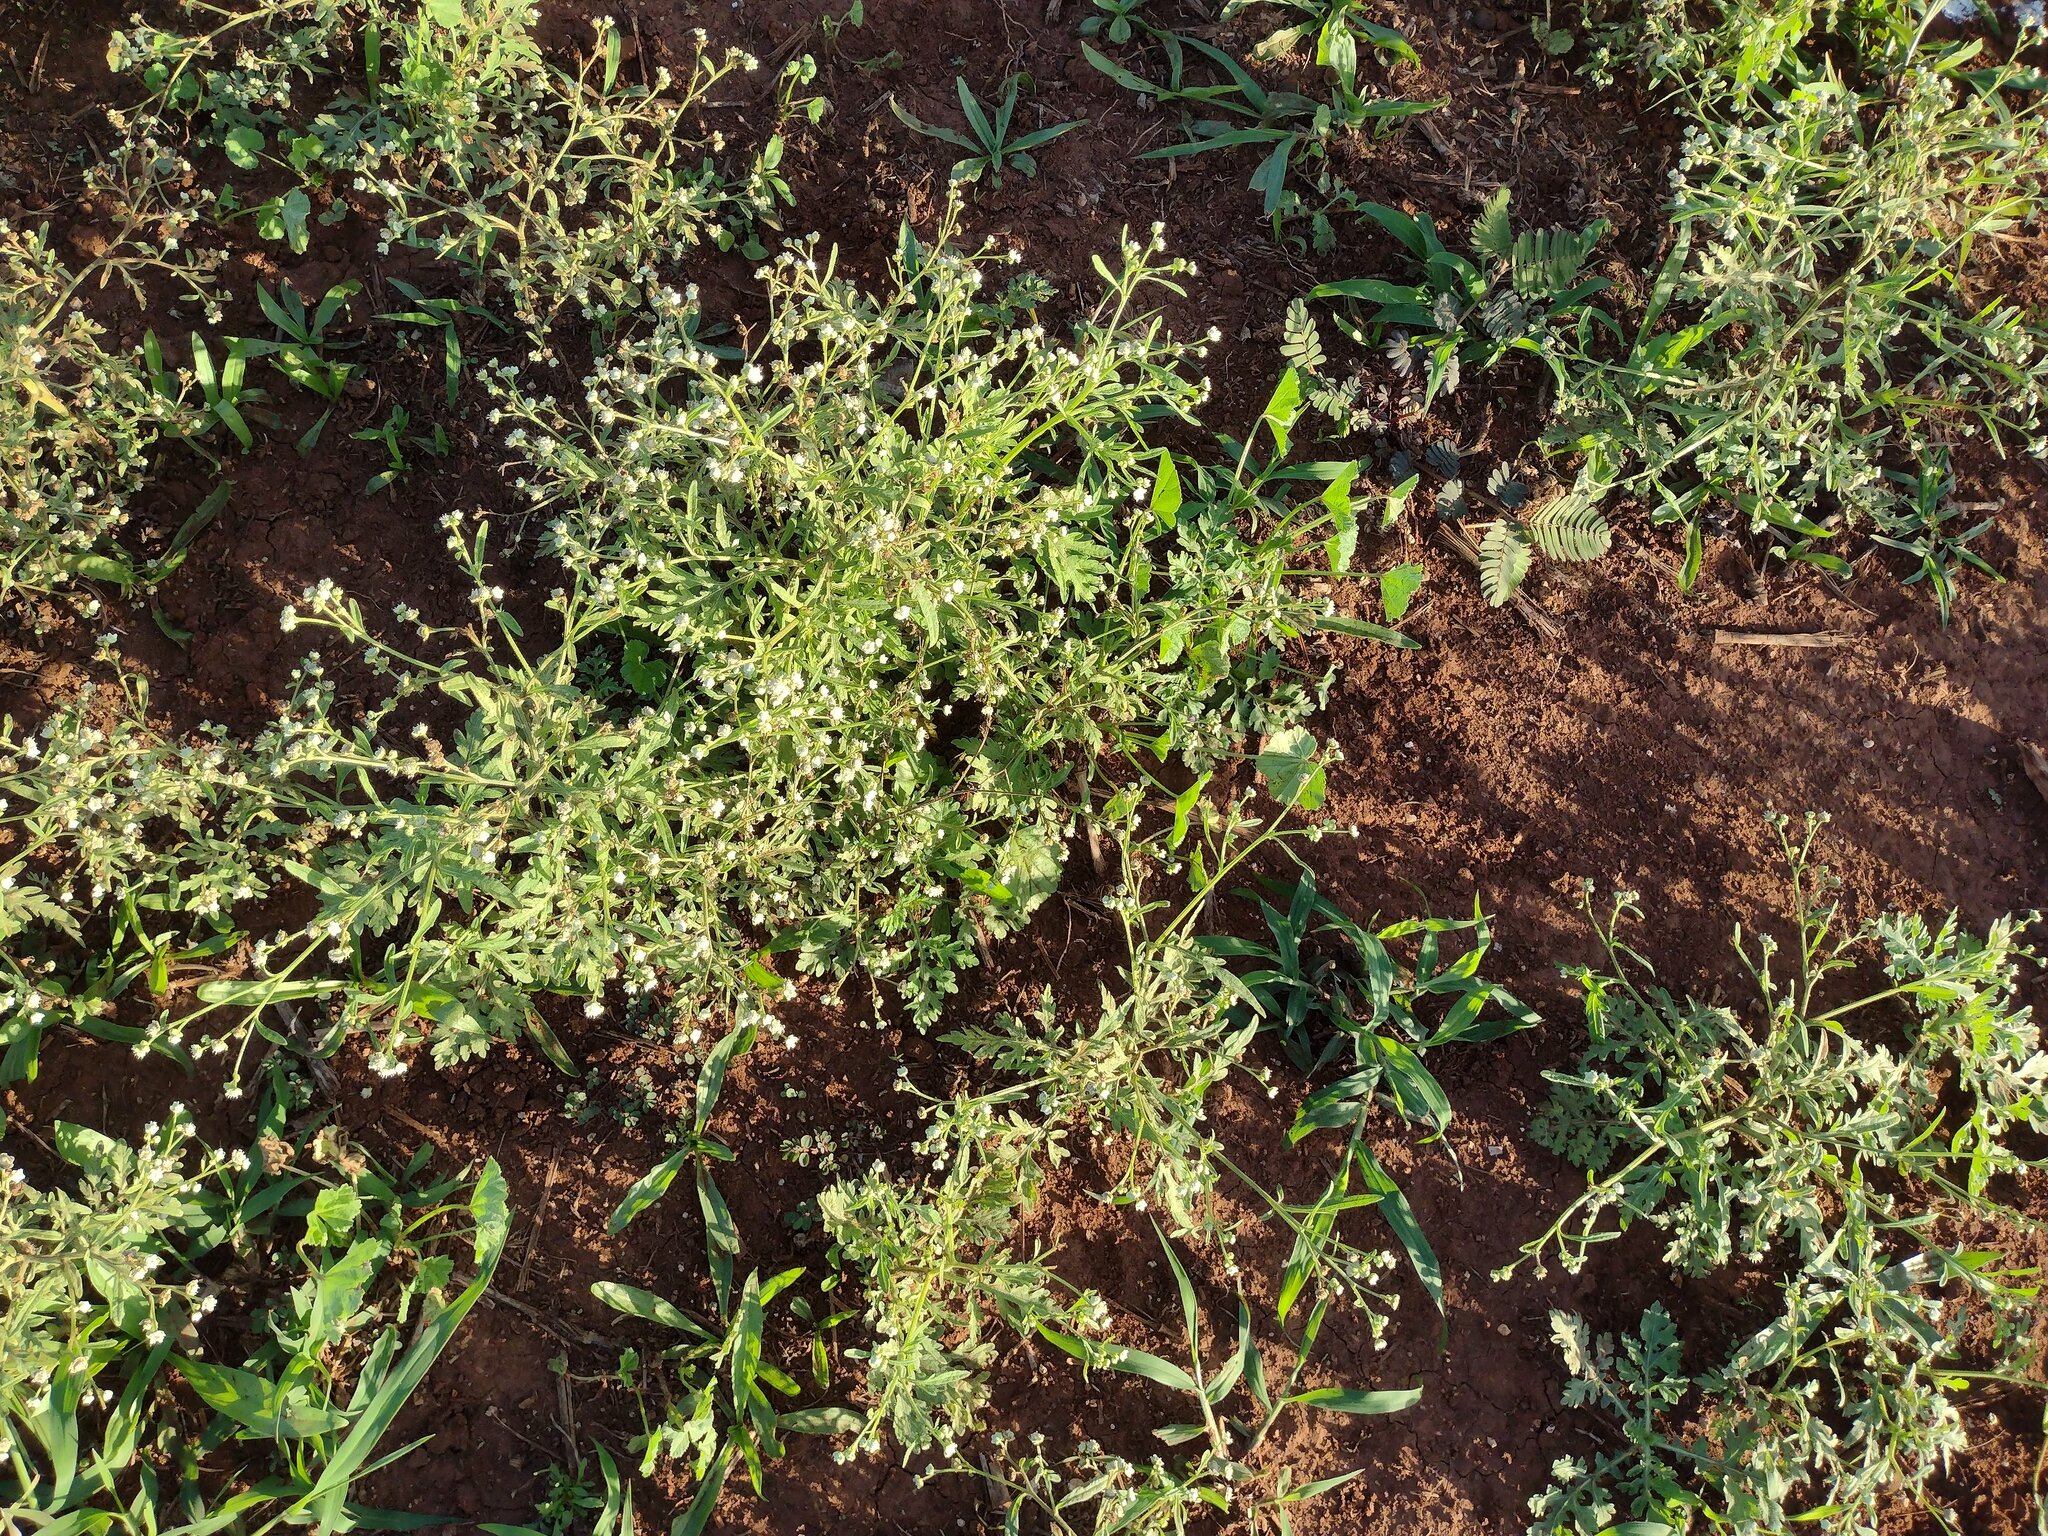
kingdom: Plantae
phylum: Tracheophyta
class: Magnoliopsida
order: Asterales
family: Asteraceae
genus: Parthenium
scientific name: Parthenium hysterophorus
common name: Santa maria feverfew
